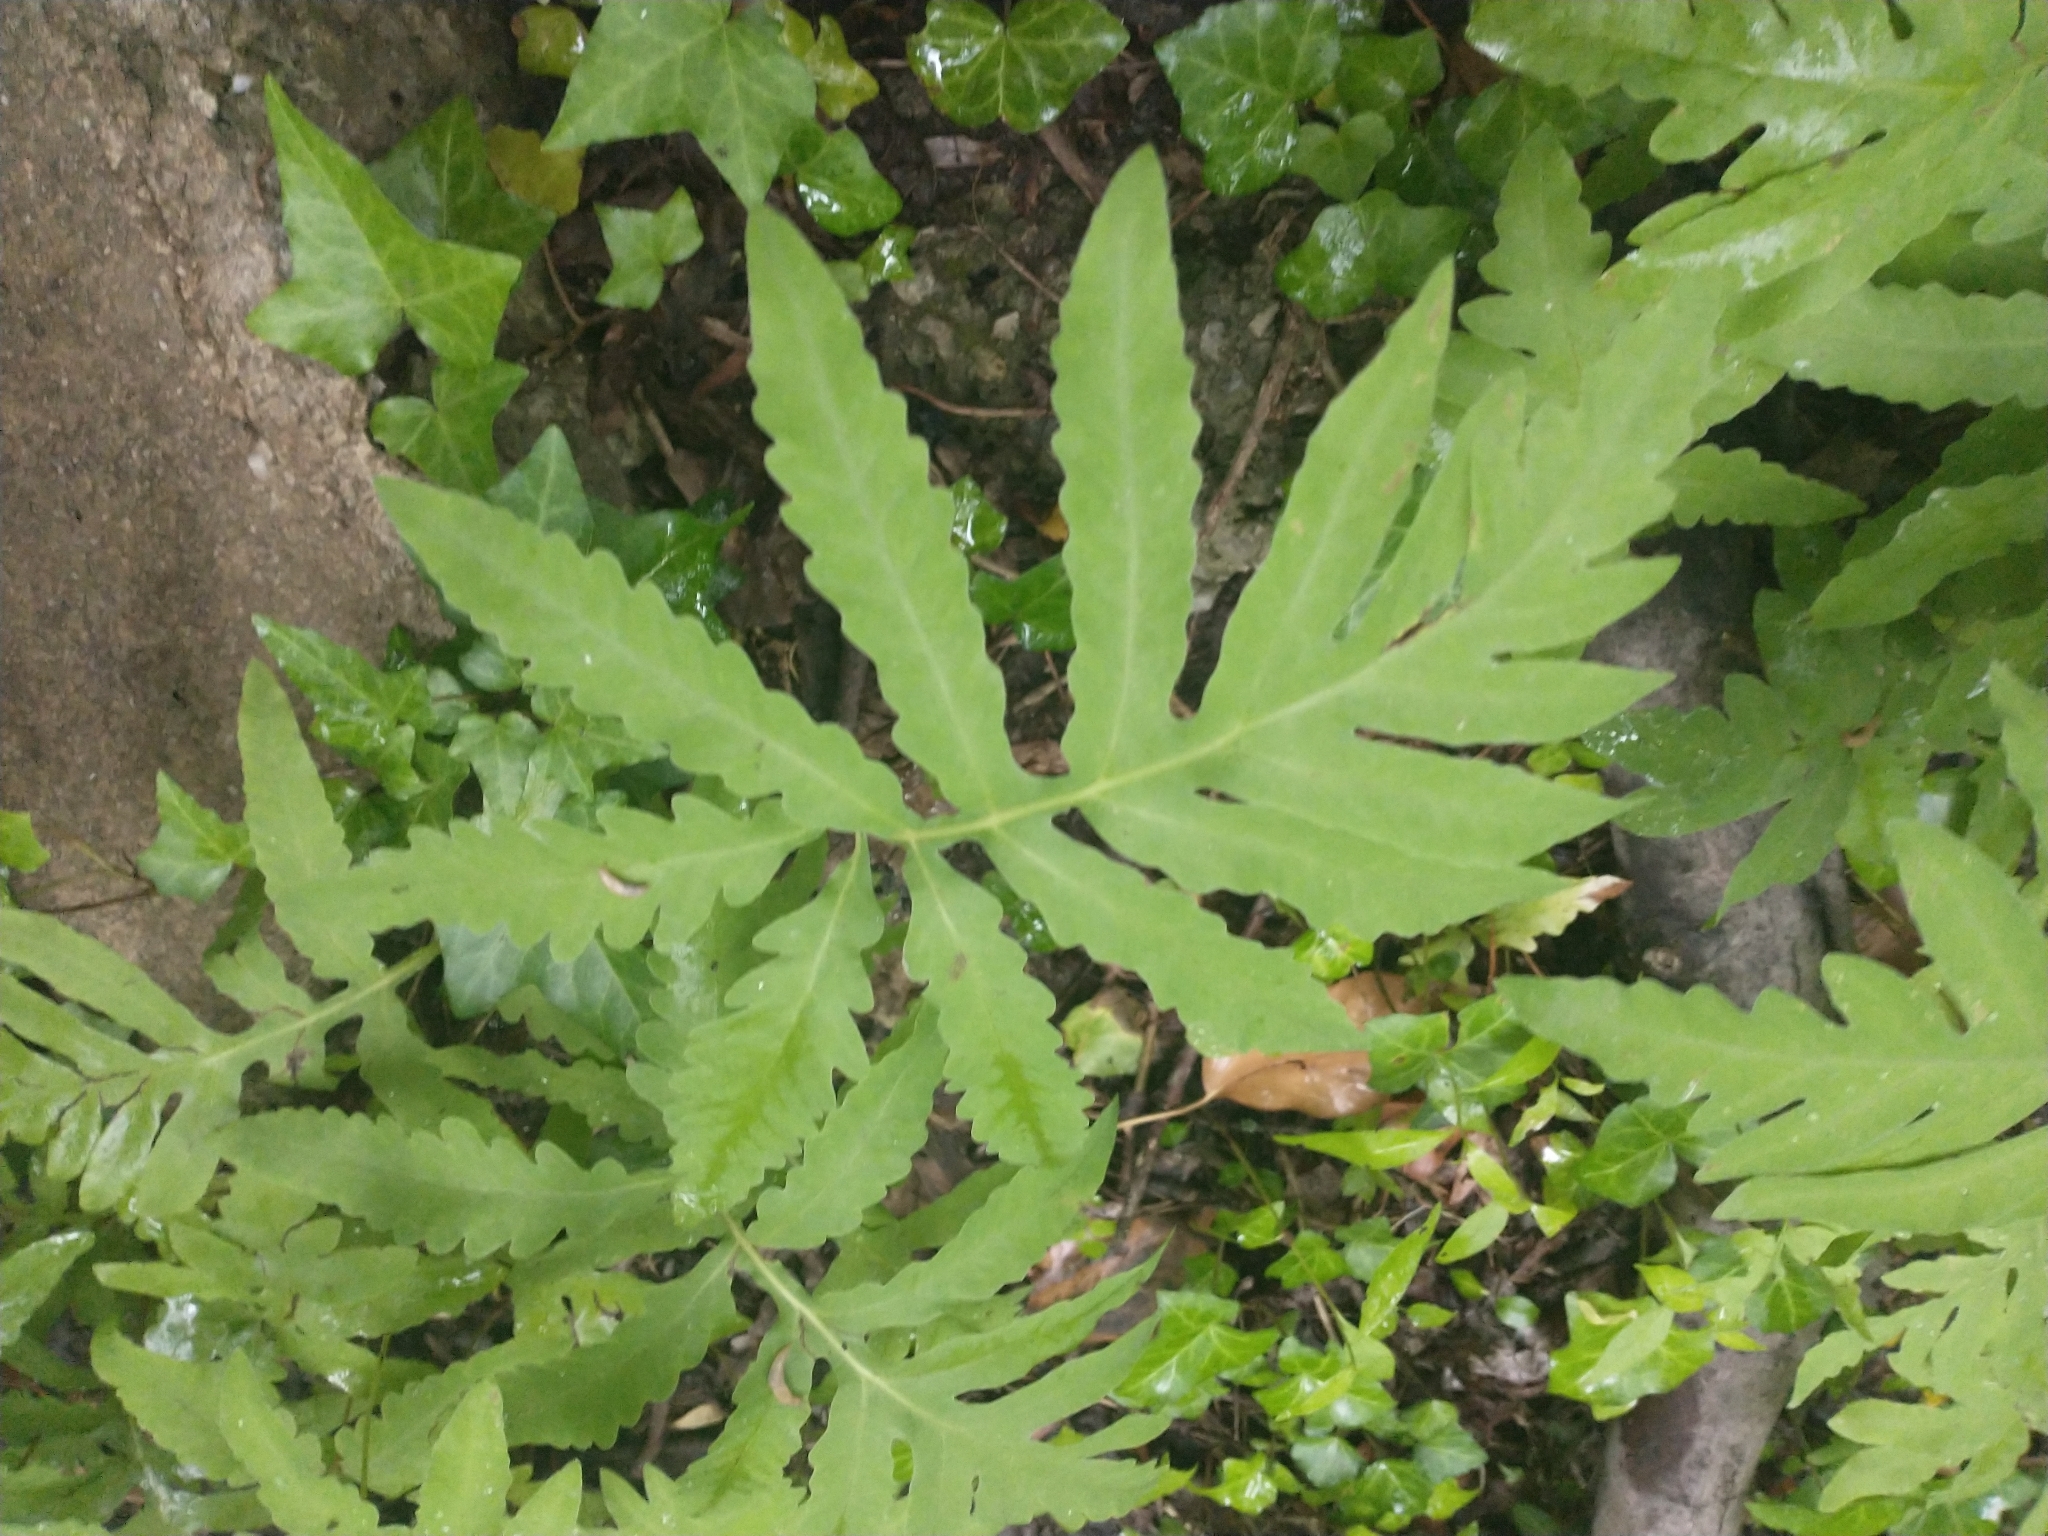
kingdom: Plantae
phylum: Tracheophyta
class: Polypodiopsida
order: Polypodiales
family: Onocleaceae
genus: Onoclea
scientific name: Onoclea sensibilis
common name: Sensitive fern
